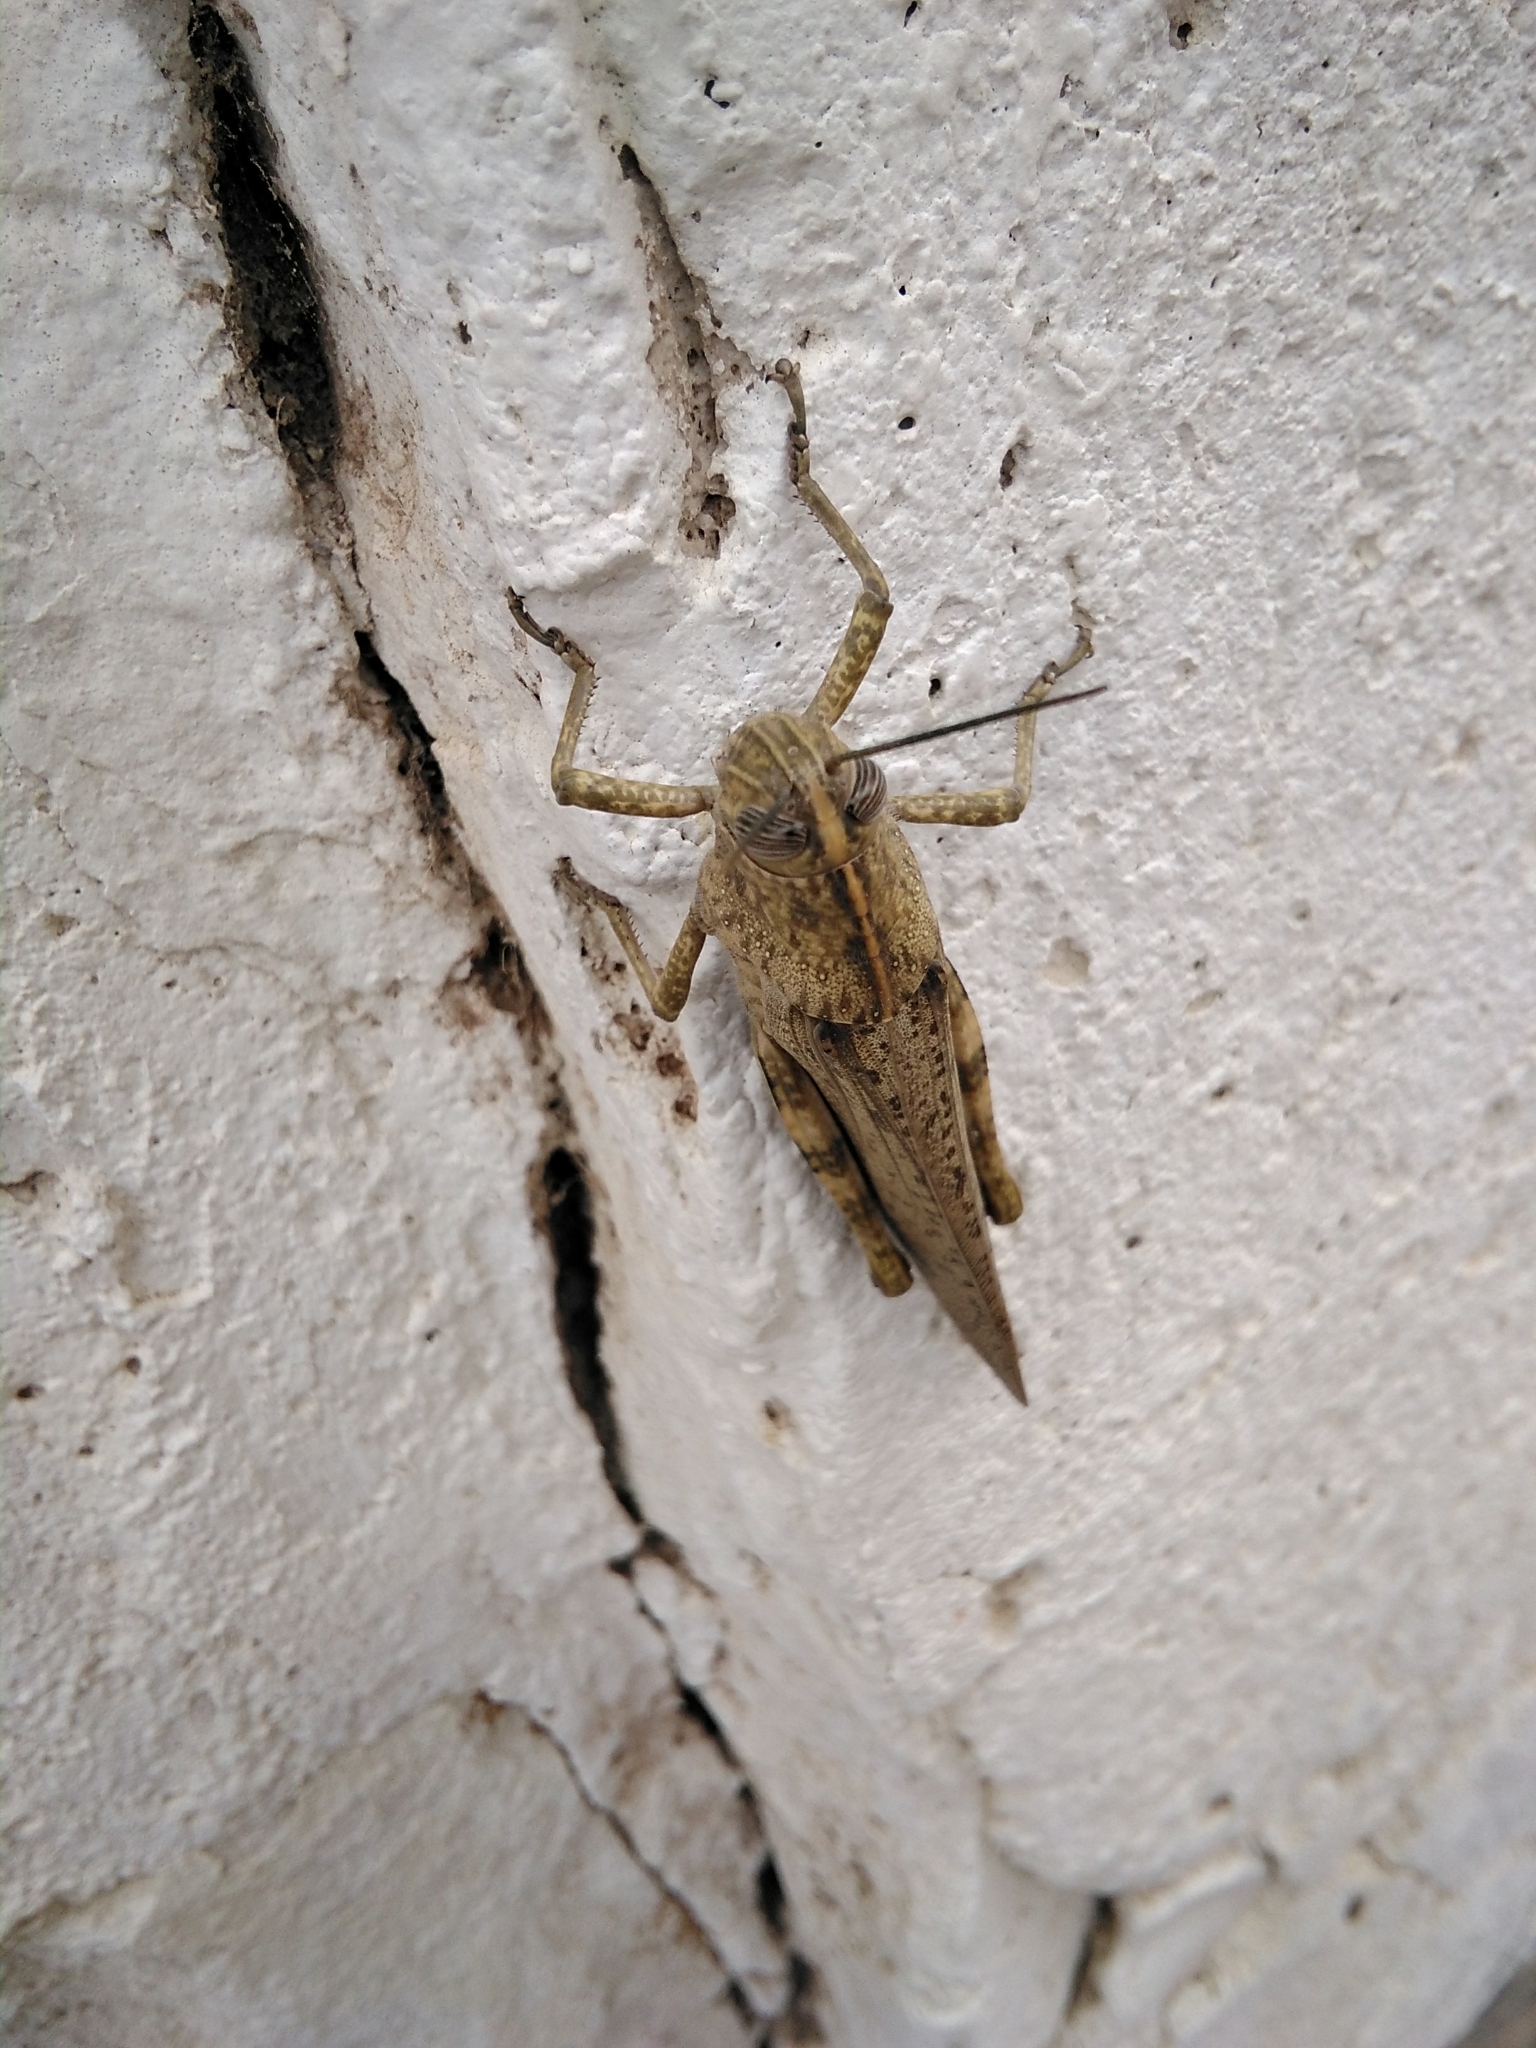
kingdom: Animalia
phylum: Arthropoda
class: Insecta
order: Orthoptera
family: Acrididae
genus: Anacridium
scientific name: Anacridium aegyptium
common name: Egyptian grasshopper
